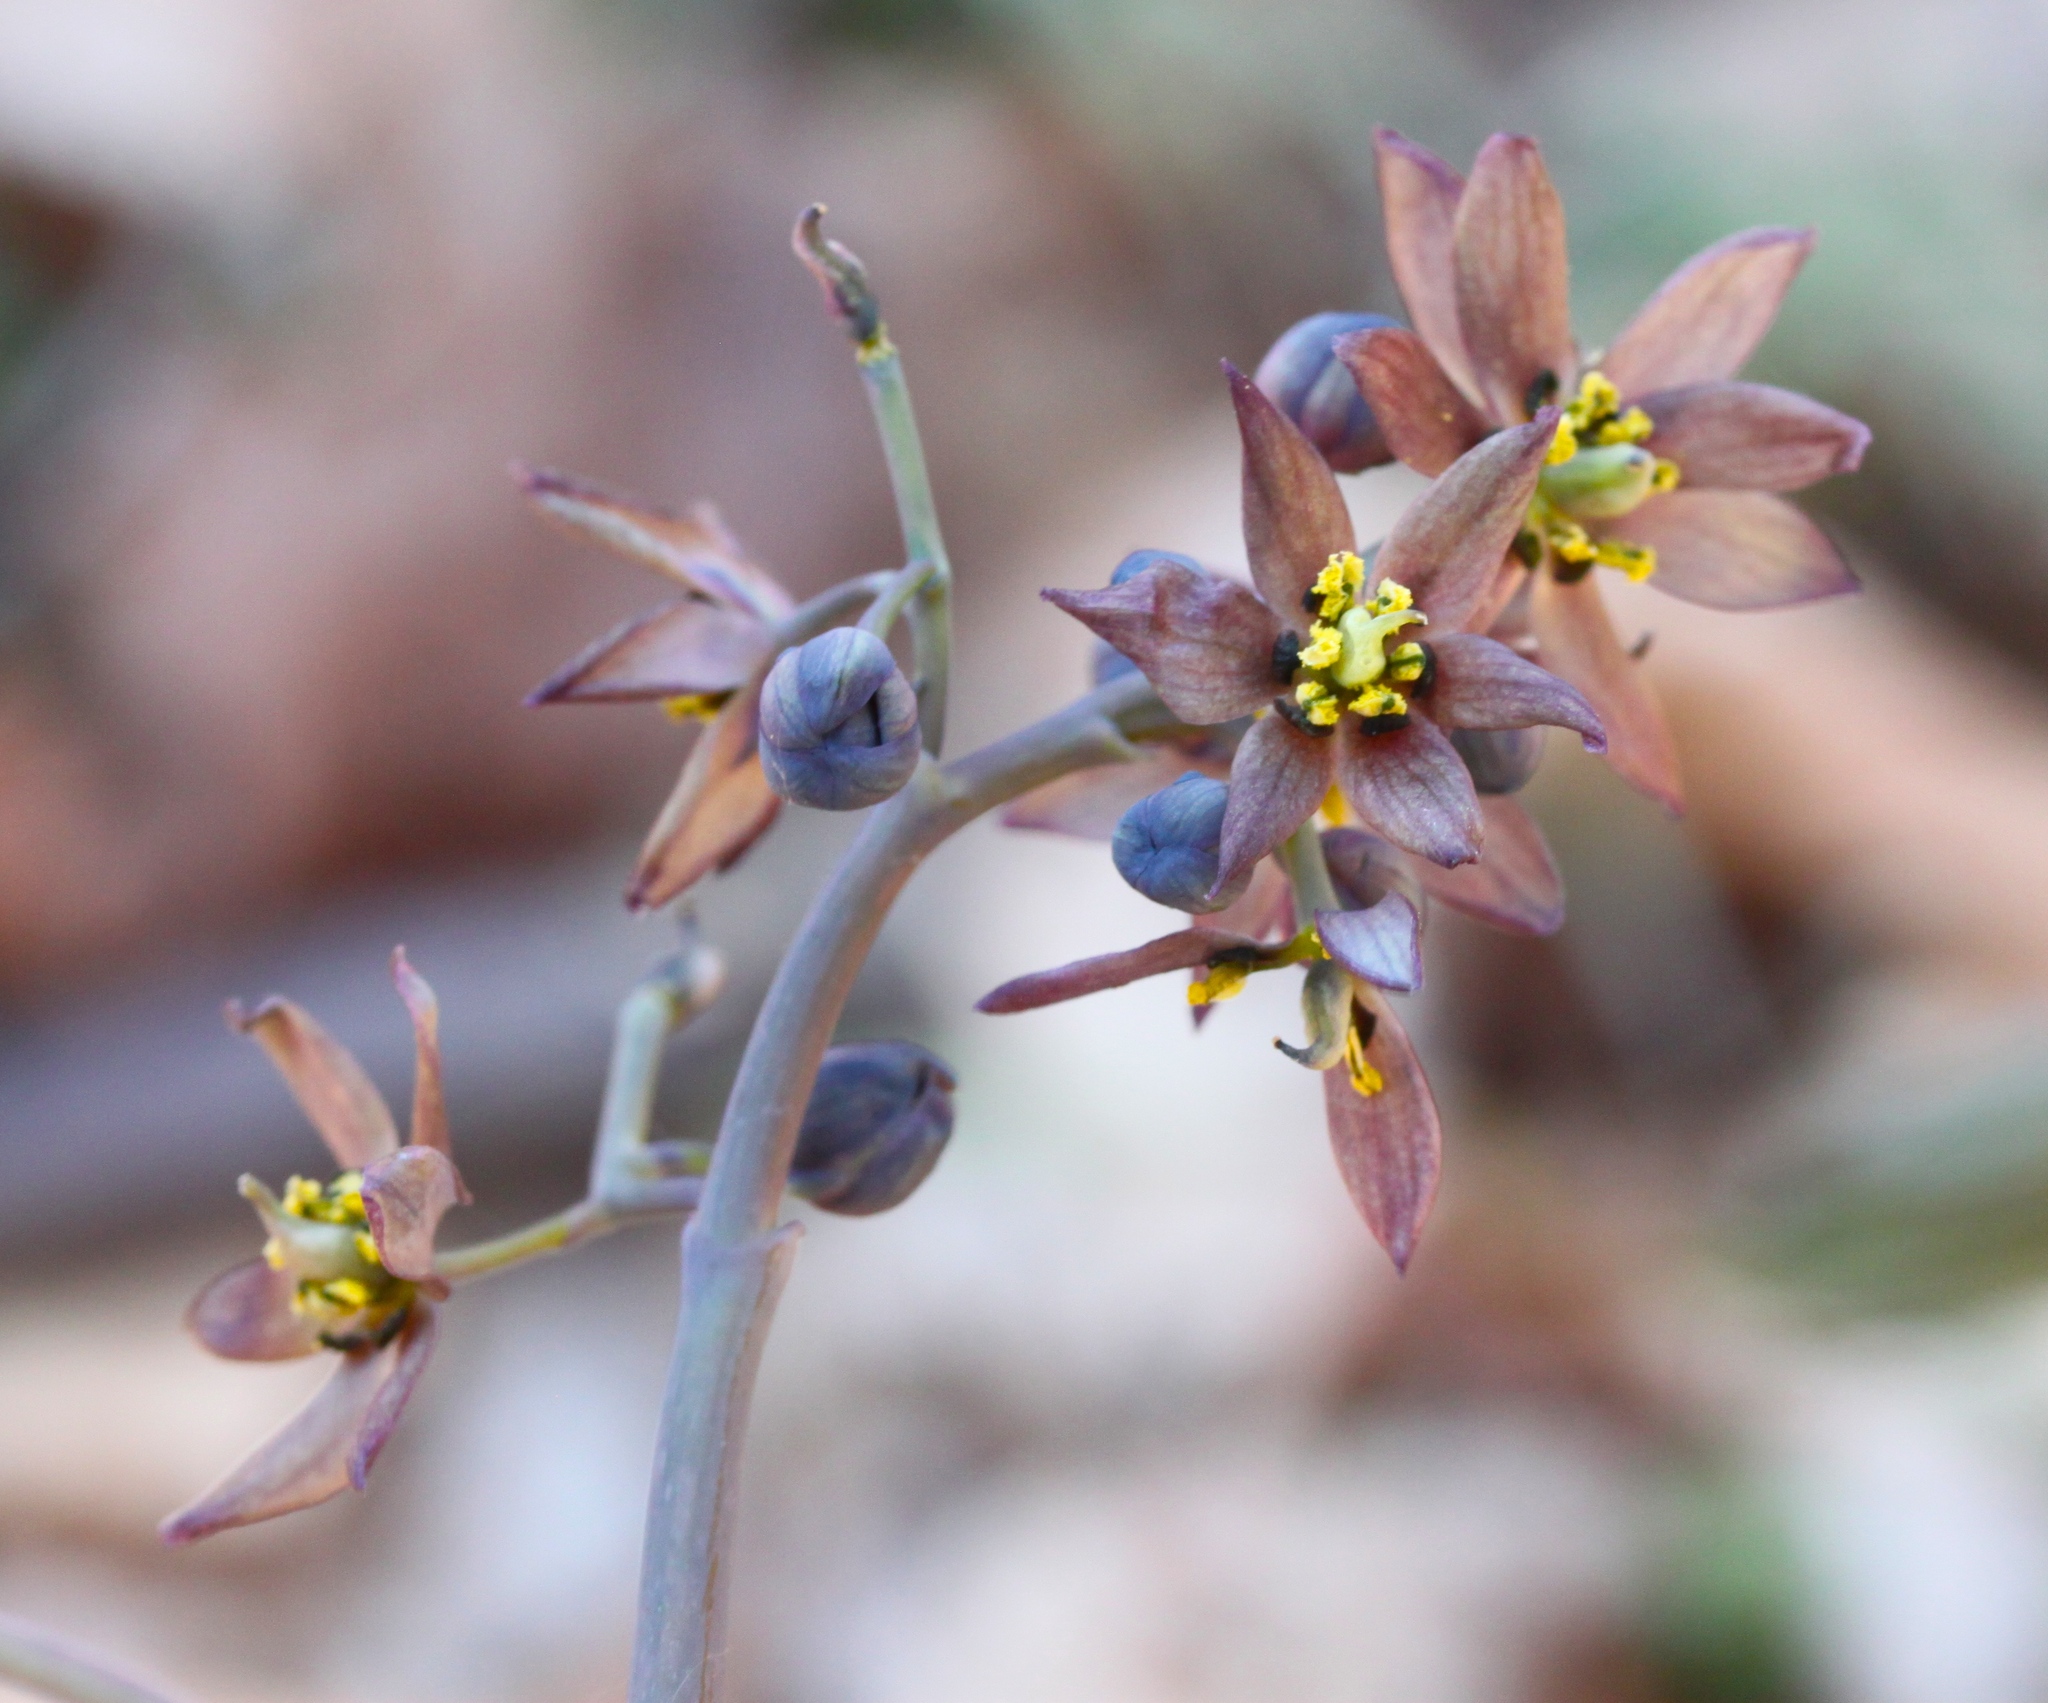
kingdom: Plantae
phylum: Tracheophyta
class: Magnoliopsida
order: Ranunculales
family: Berberidaceae
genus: Caulophyllum
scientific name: Caulophyllum giganteum
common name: Blue cohosh
